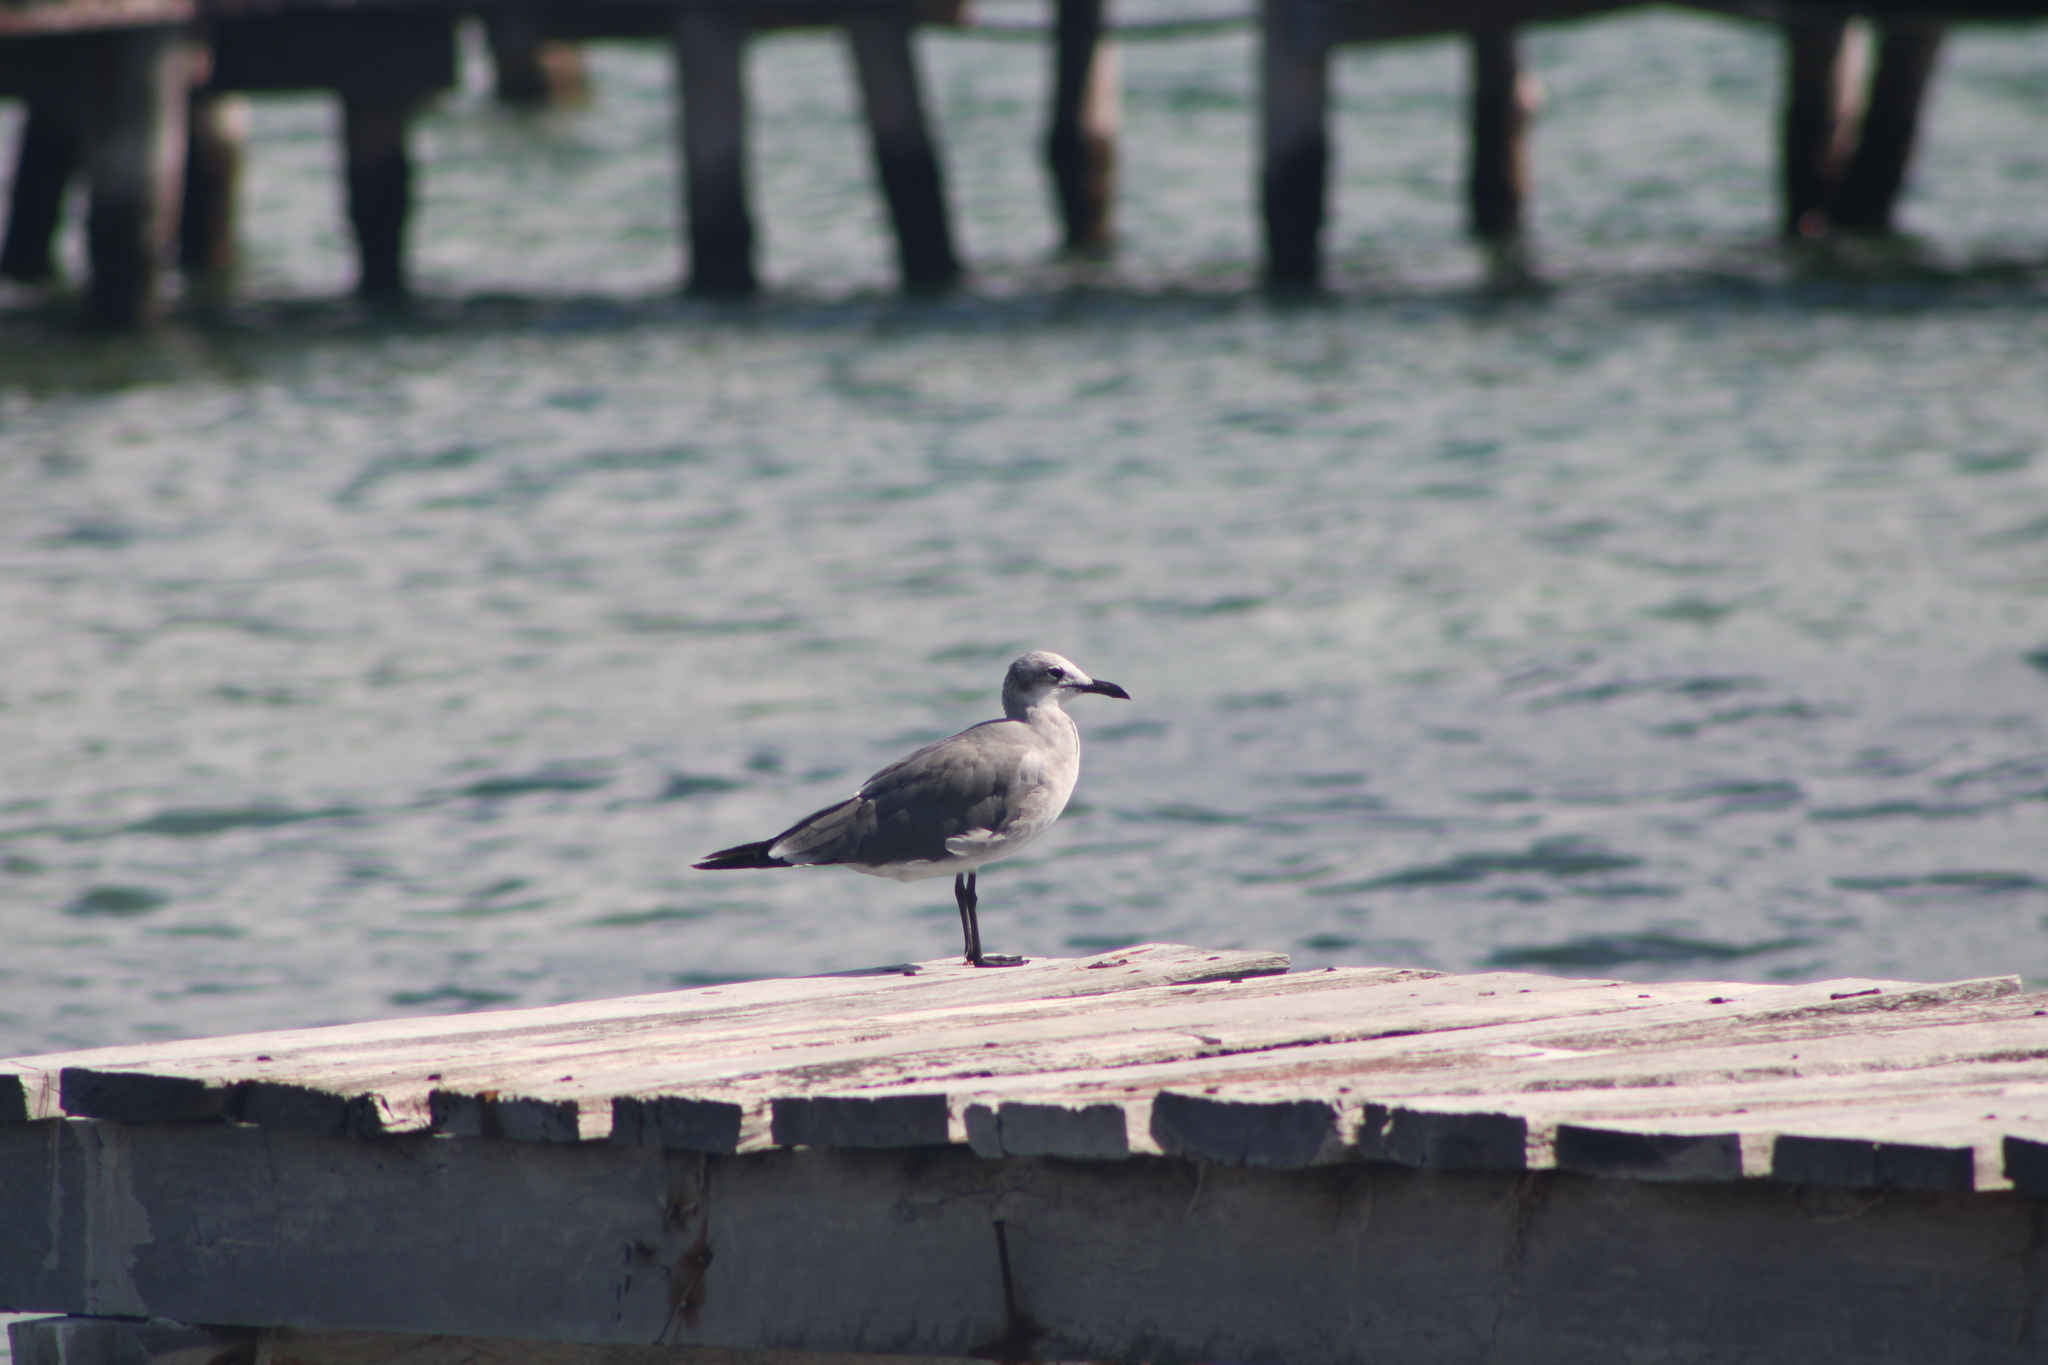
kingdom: Animalia
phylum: Chordata
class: Aves
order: Charadriiformes
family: Laridae
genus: Leucophaeus
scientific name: Leucophaeus atricilla
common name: Laughing gull
